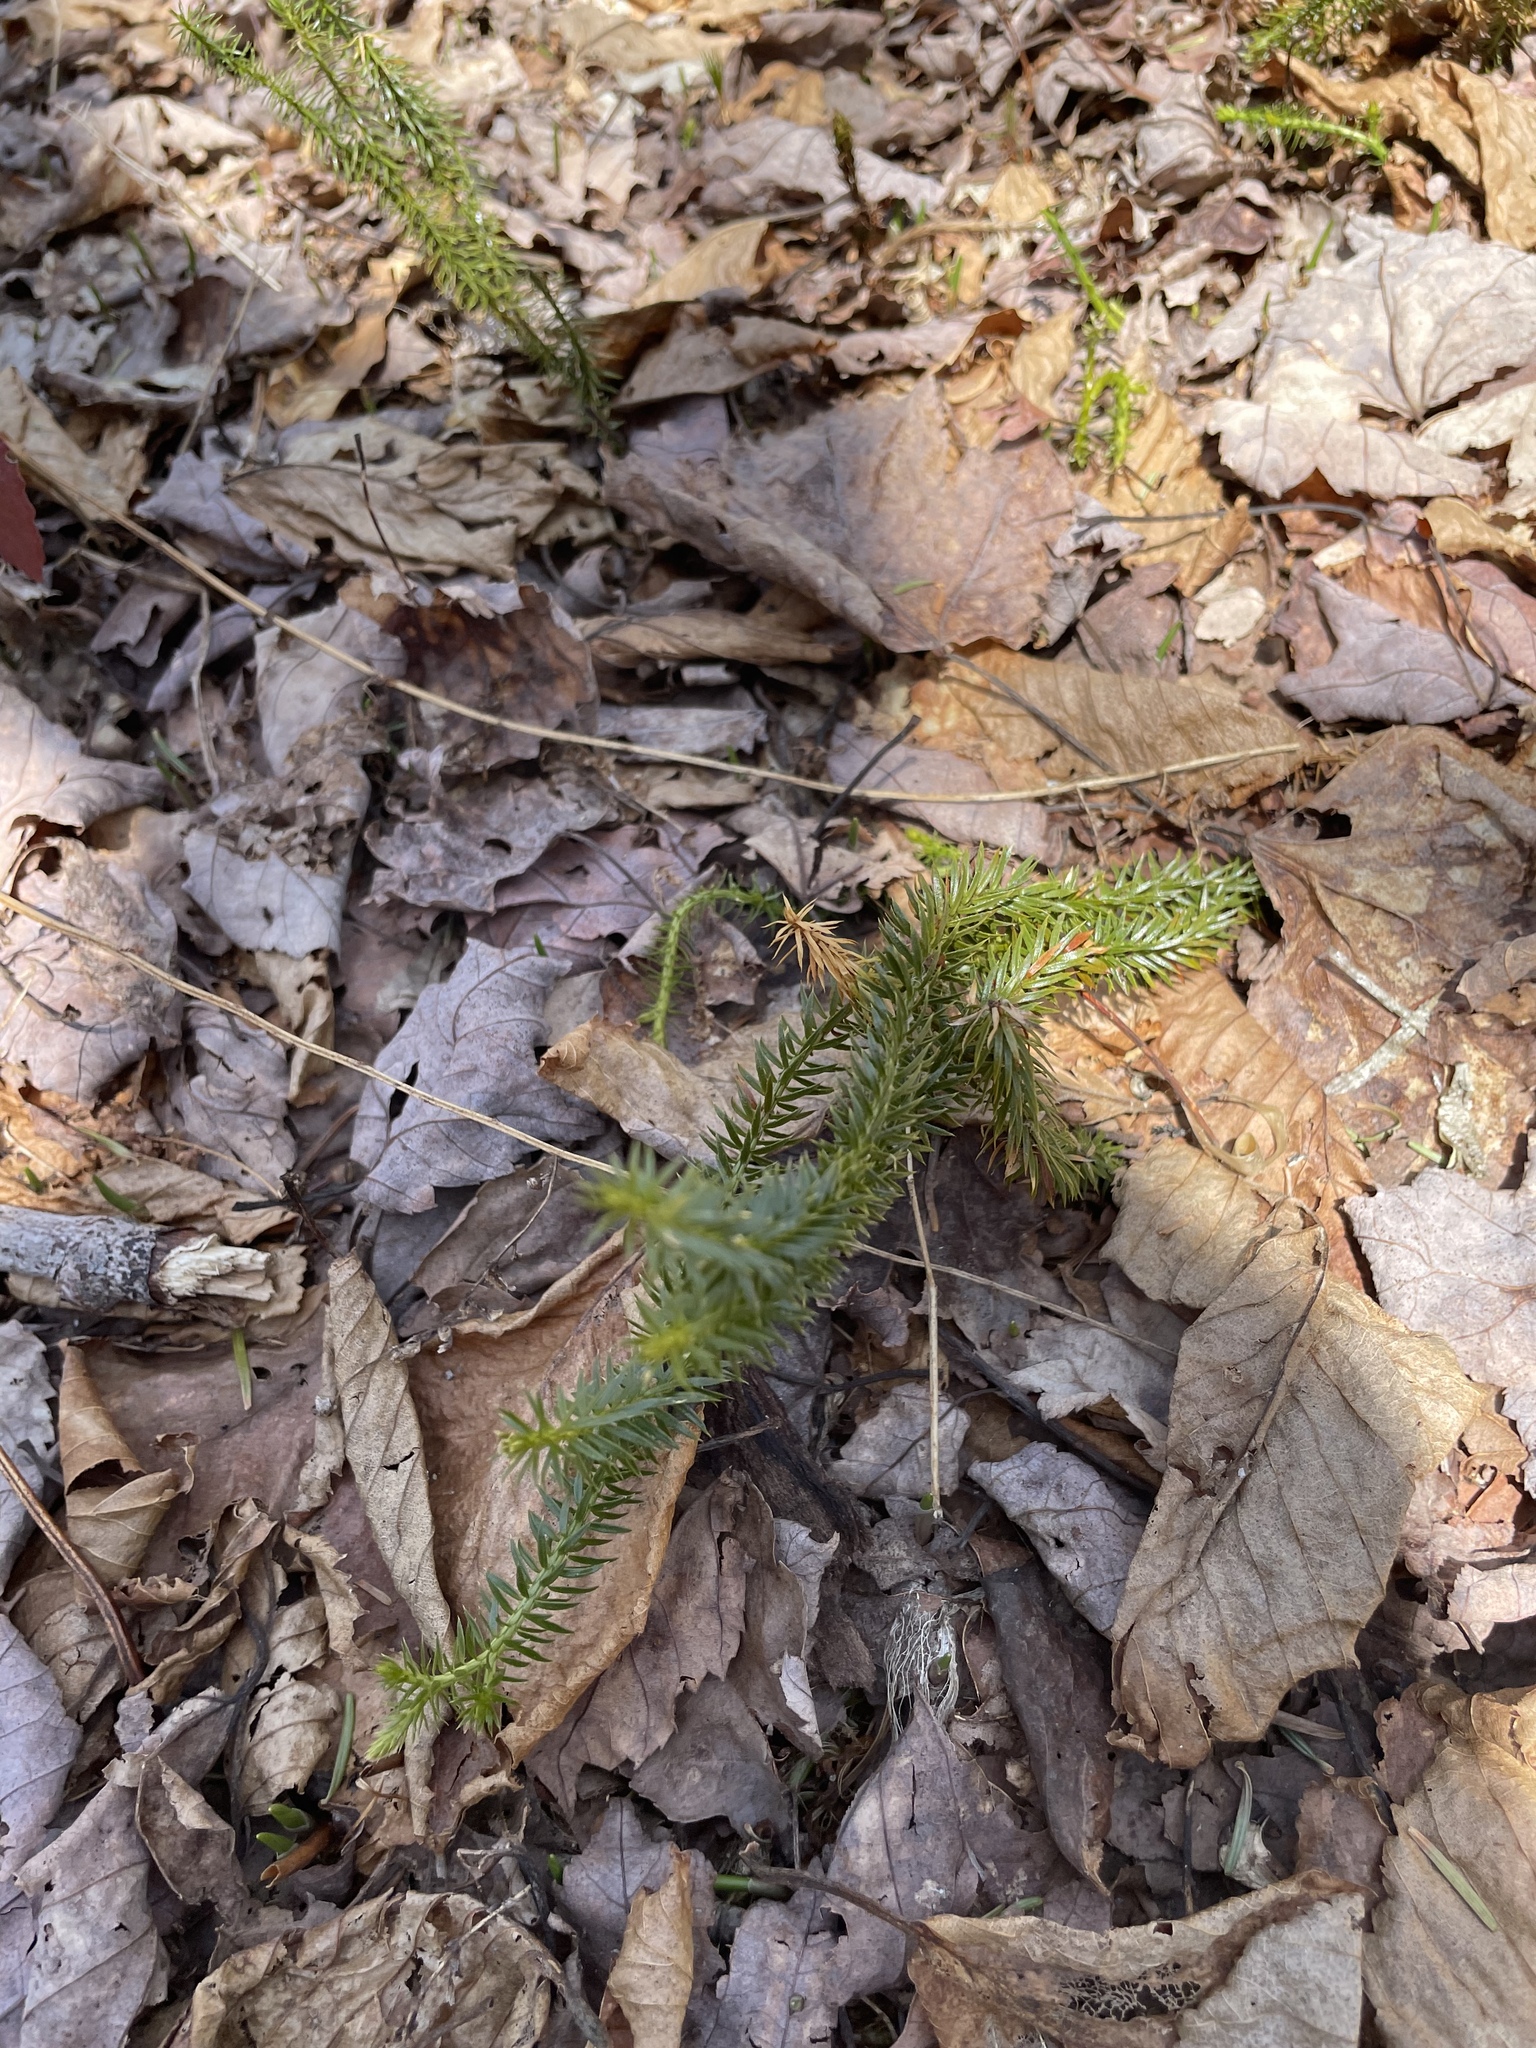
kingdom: Plantae
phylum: Tracheophyta
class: Lycopodiopsida
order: Lycopodiales
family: Lycopodiaceae
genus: Spinulum
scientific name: Spinulum annotinum
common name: Interrupted club-moss
